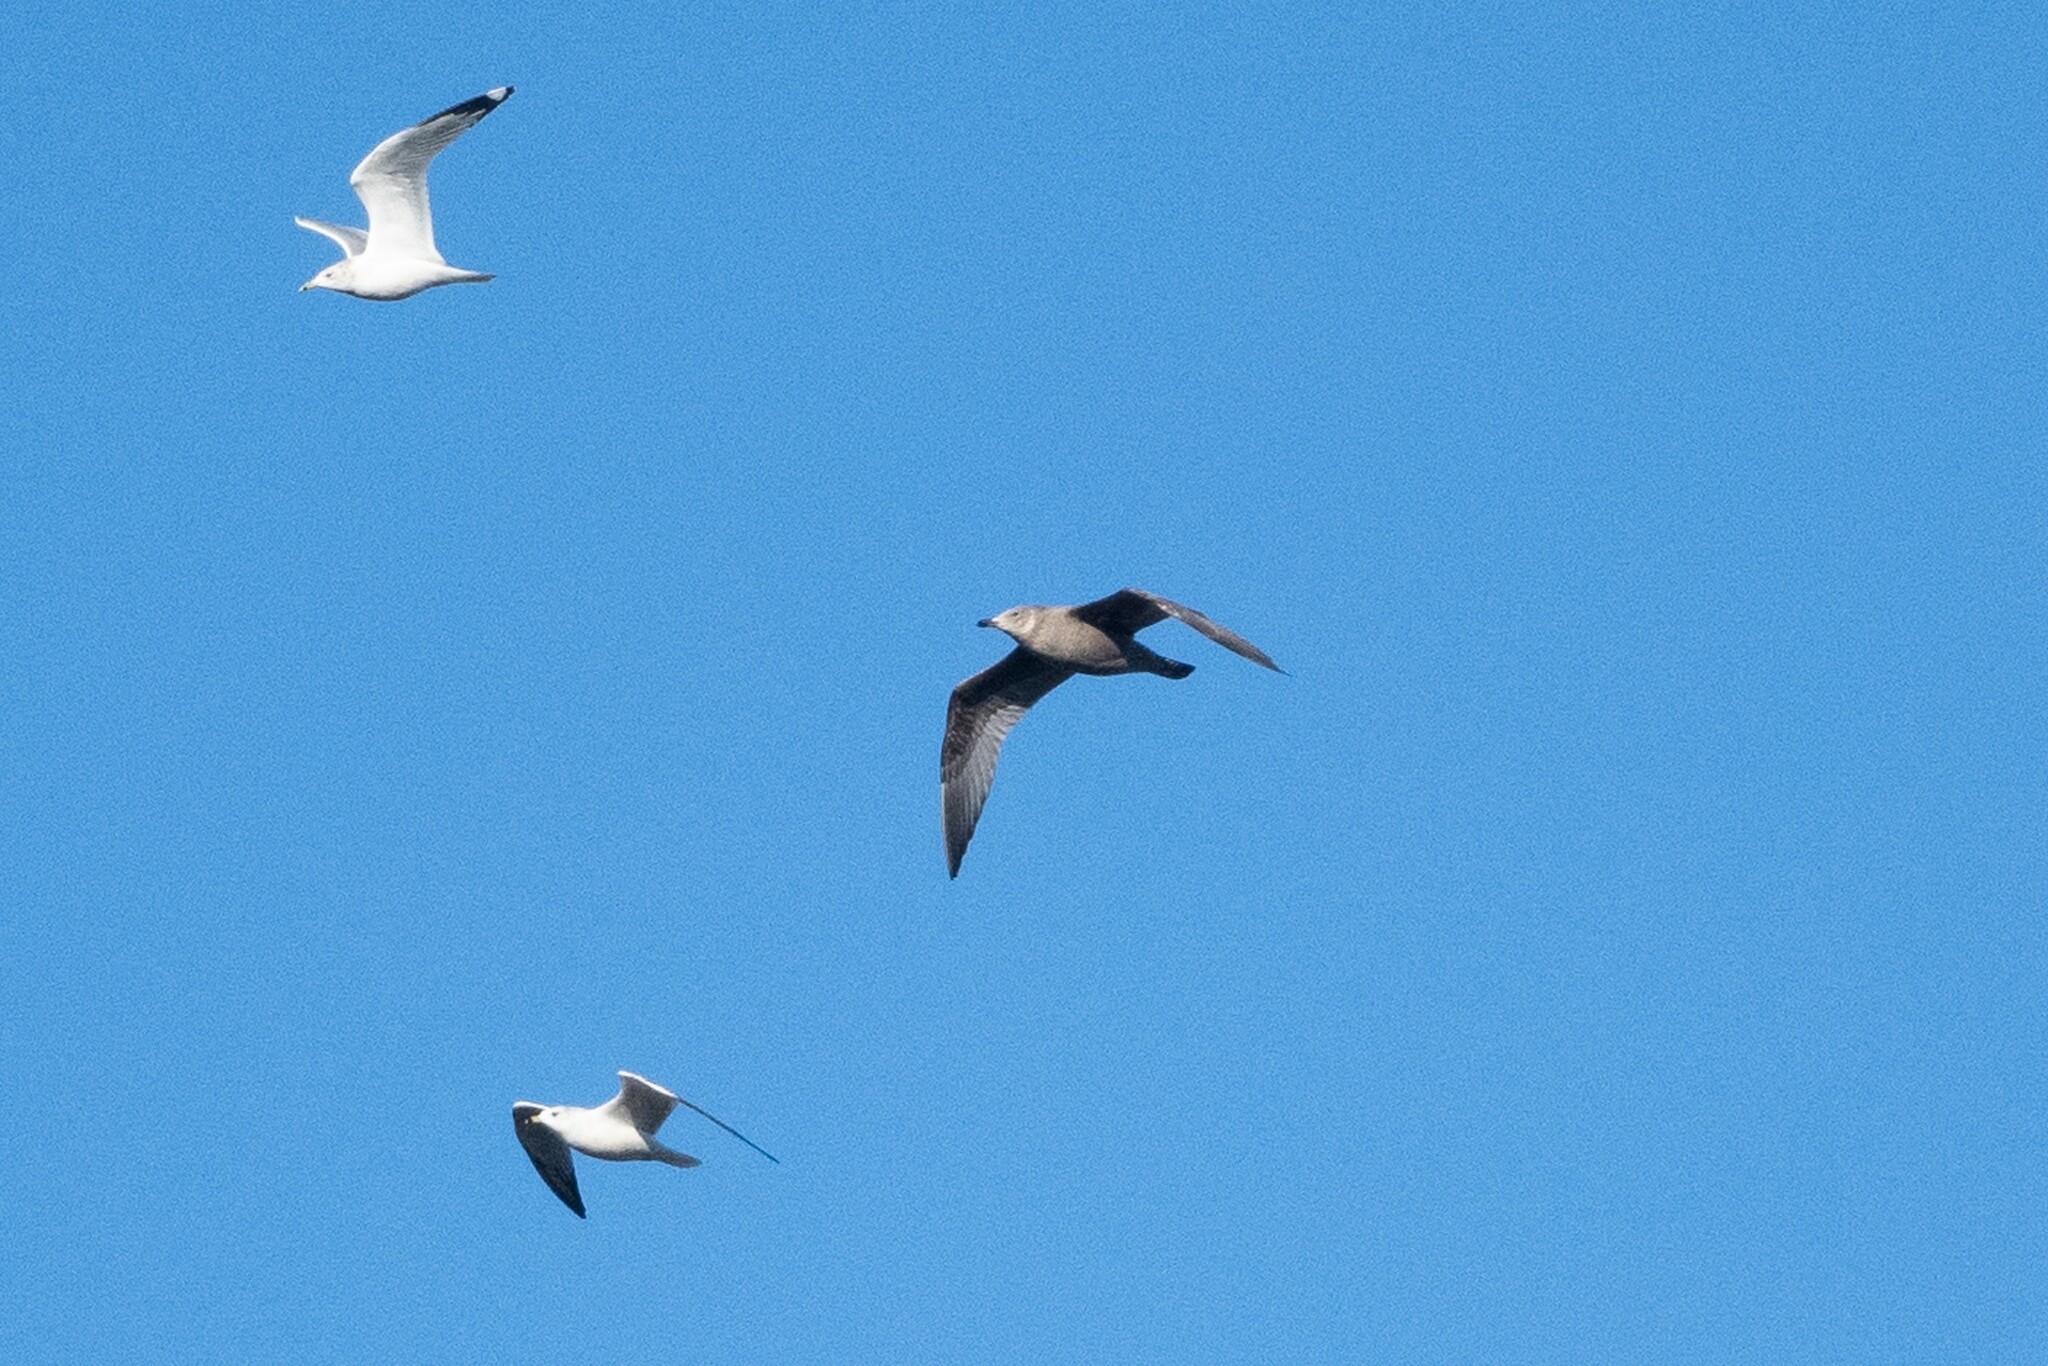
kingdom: Animalia
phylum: Chordata
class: Aves
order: Charadriiformes
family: Laridae
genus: Larus
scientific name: Larus argentatus
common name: Herring gull
